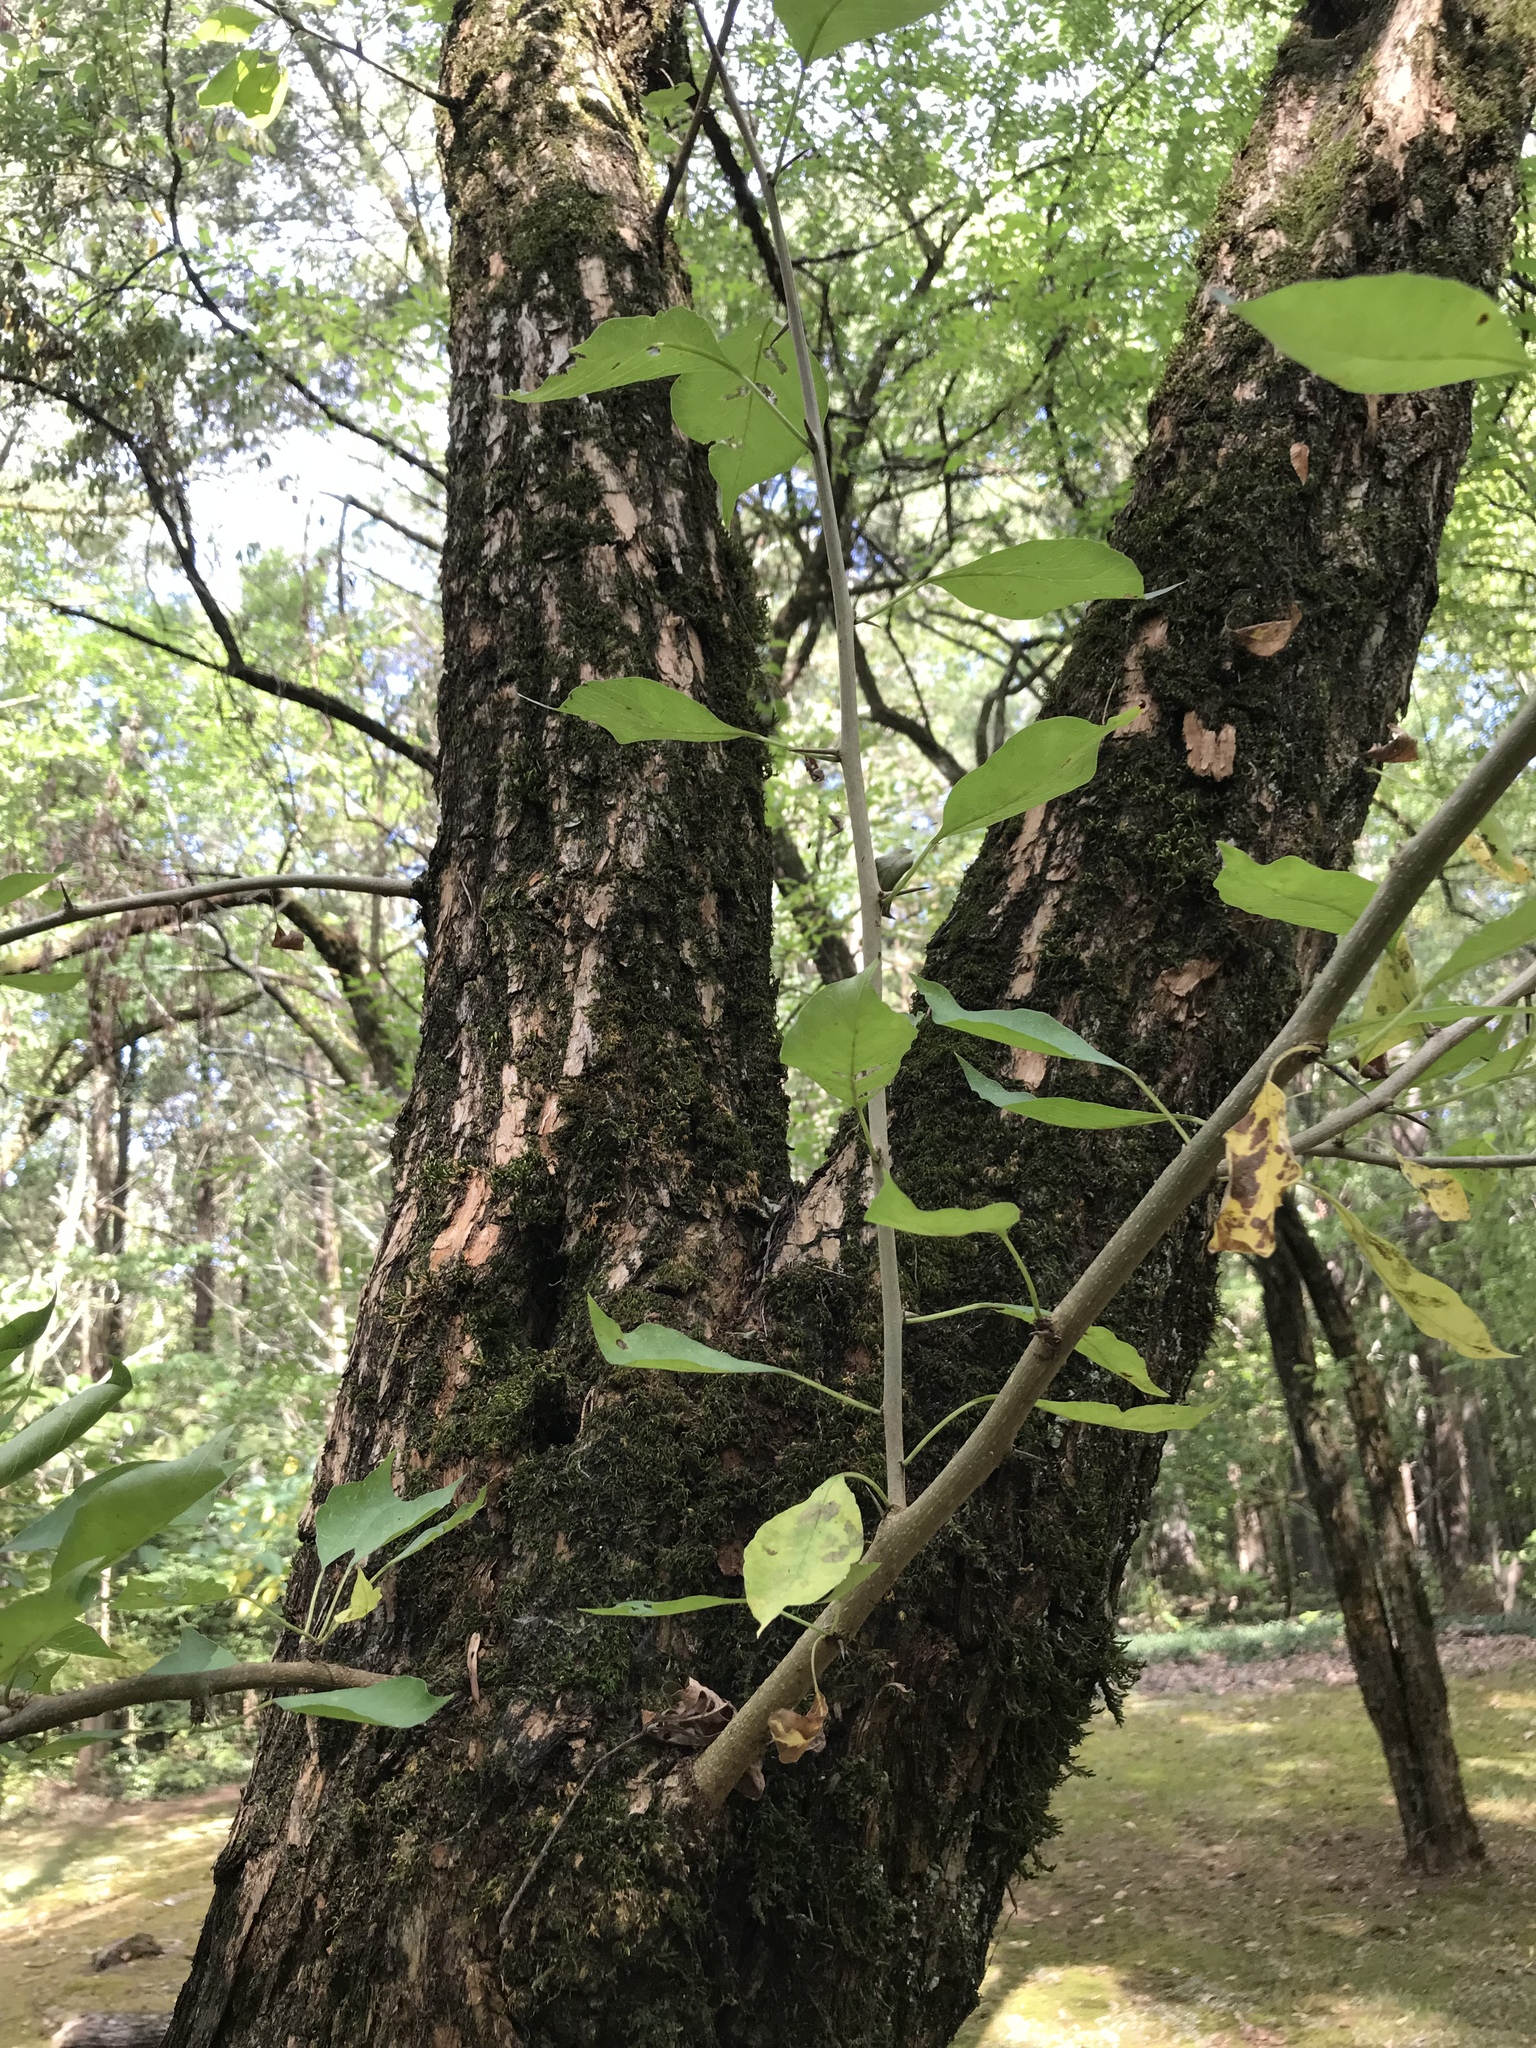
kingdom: Plantae
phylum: Tracheophyta
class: Magnoliopsida
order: Rosales
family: Moraceae
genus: Maclura
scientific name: Maclura pomifera
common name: Osage-orange
